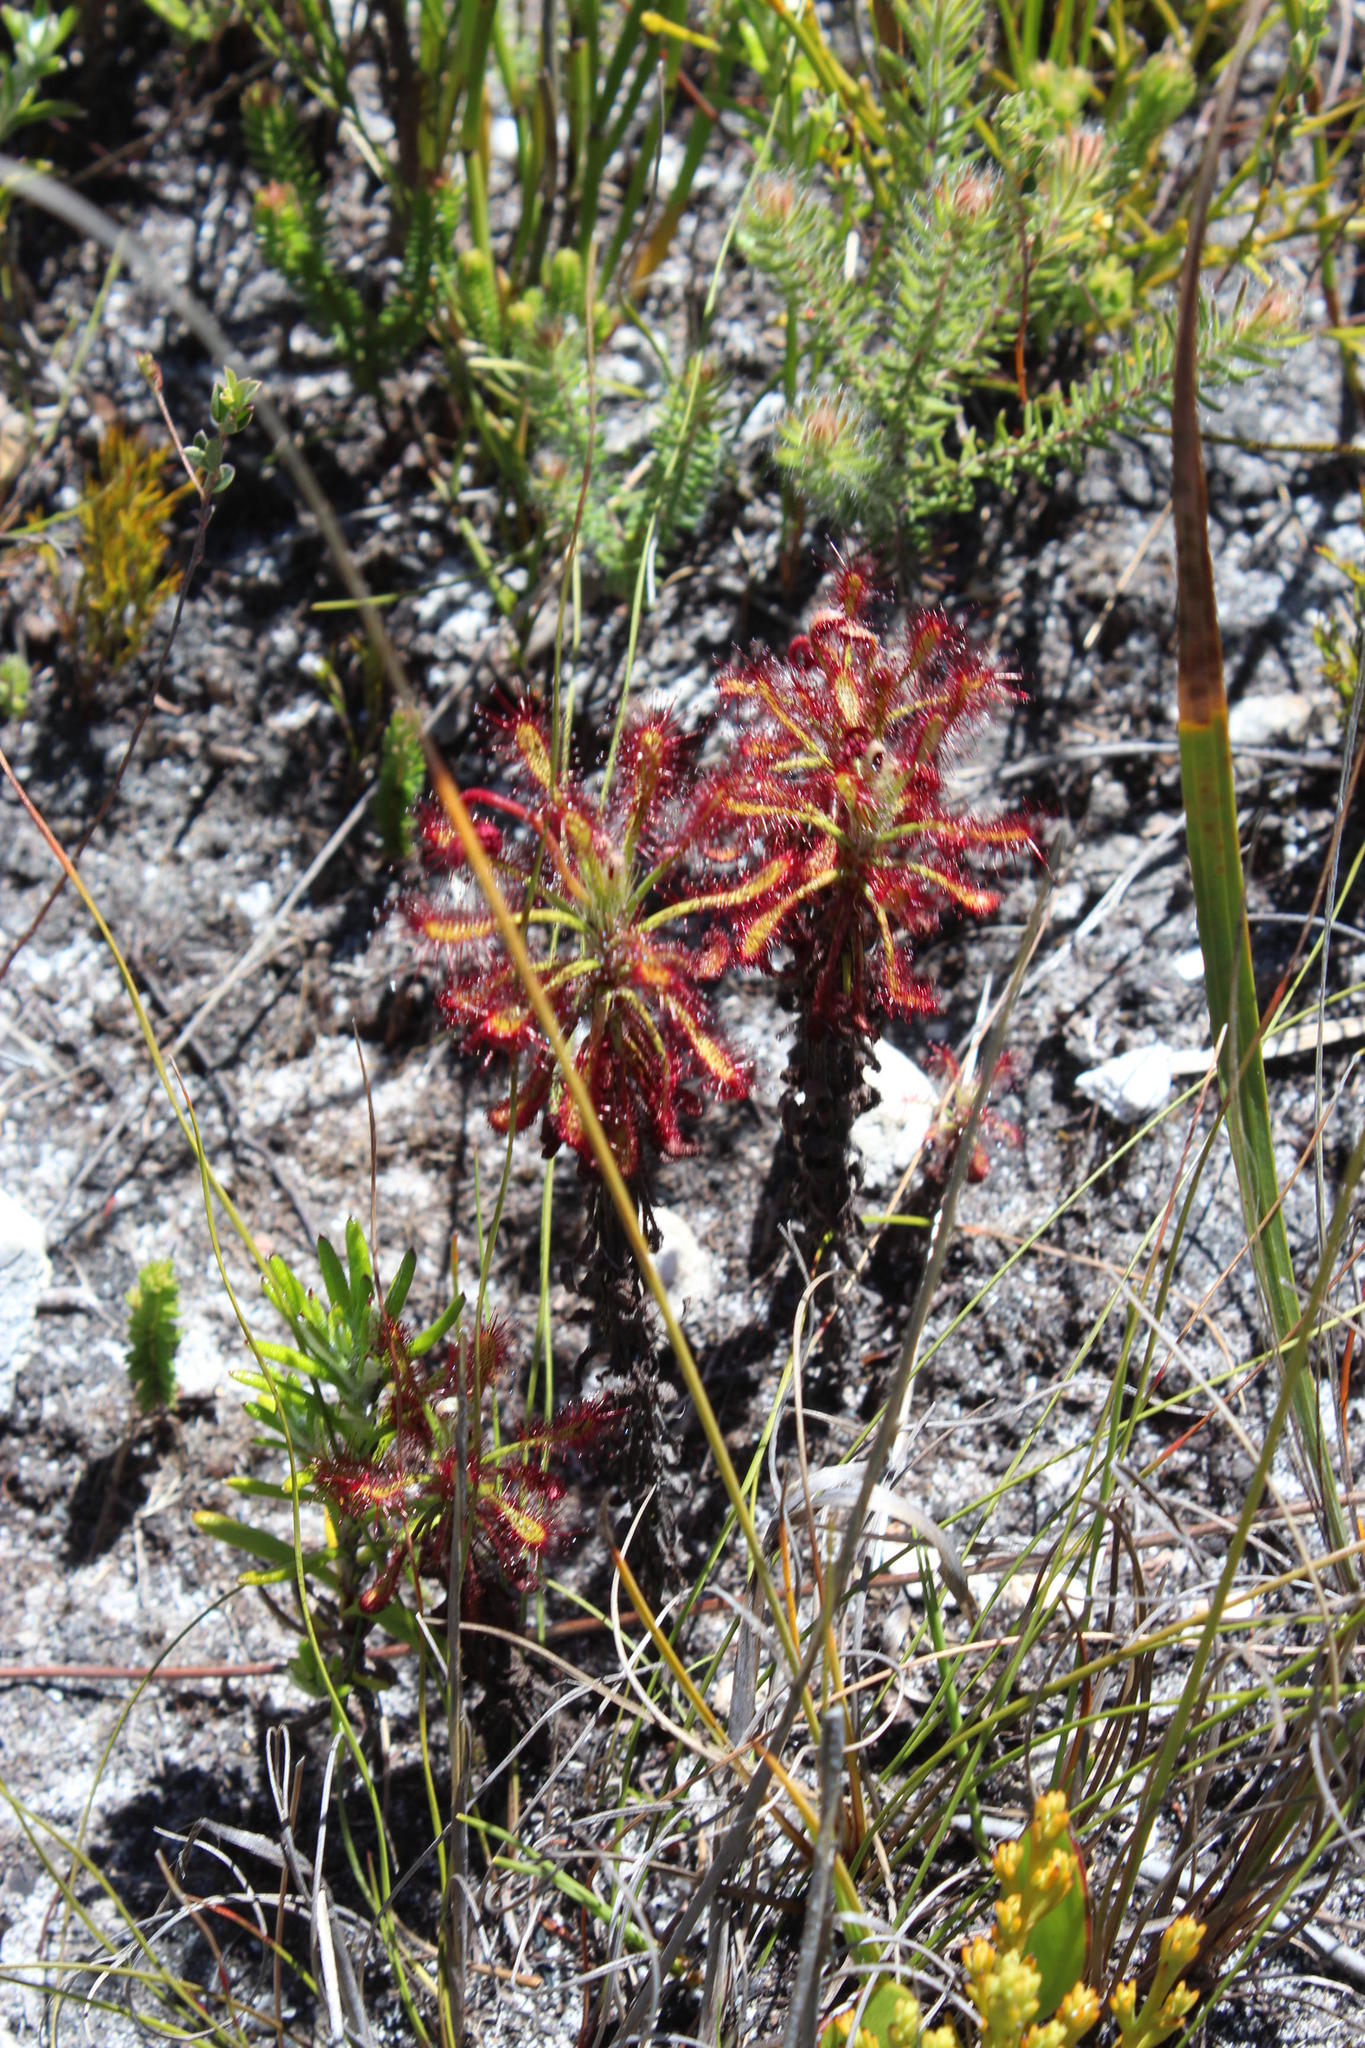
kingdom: Plantae
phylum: Tracheophyta
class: Magnoliopsida
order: Caryophyllales
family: Droseraceae
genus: Drosera
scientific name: Drosera glabripes
